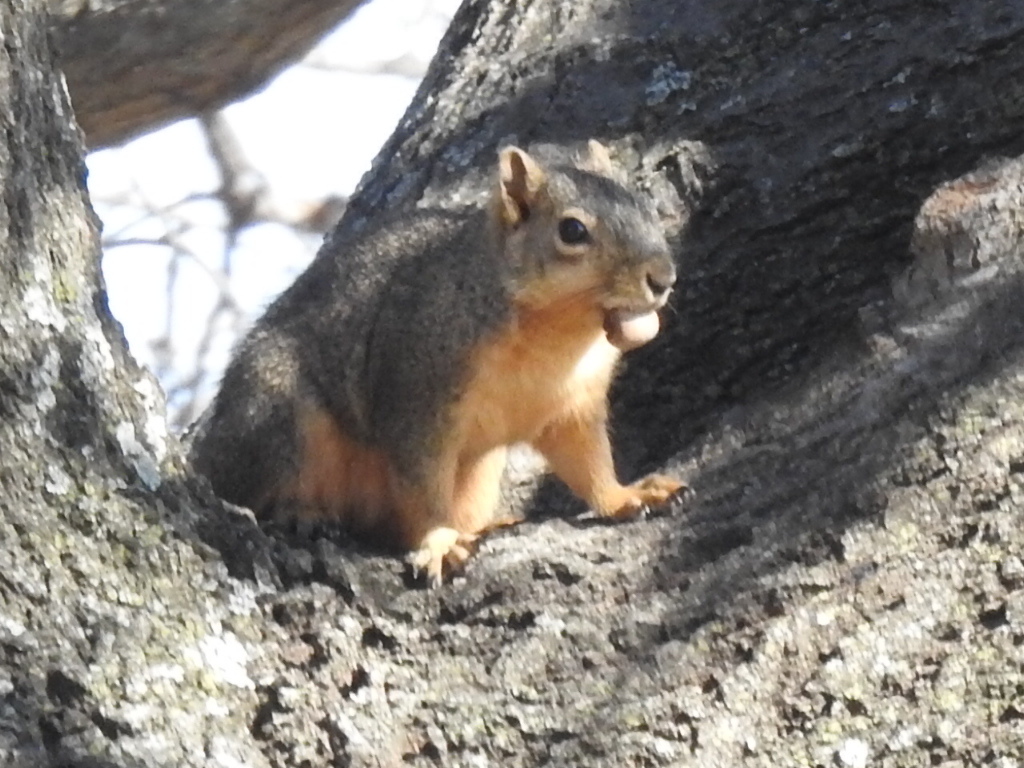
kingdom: Animalia
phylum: Chordata
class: Mammalia
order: Rodentia
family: Sciuridae
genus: Sciurus
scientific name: Sciurus niger
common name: Fox squirrel
